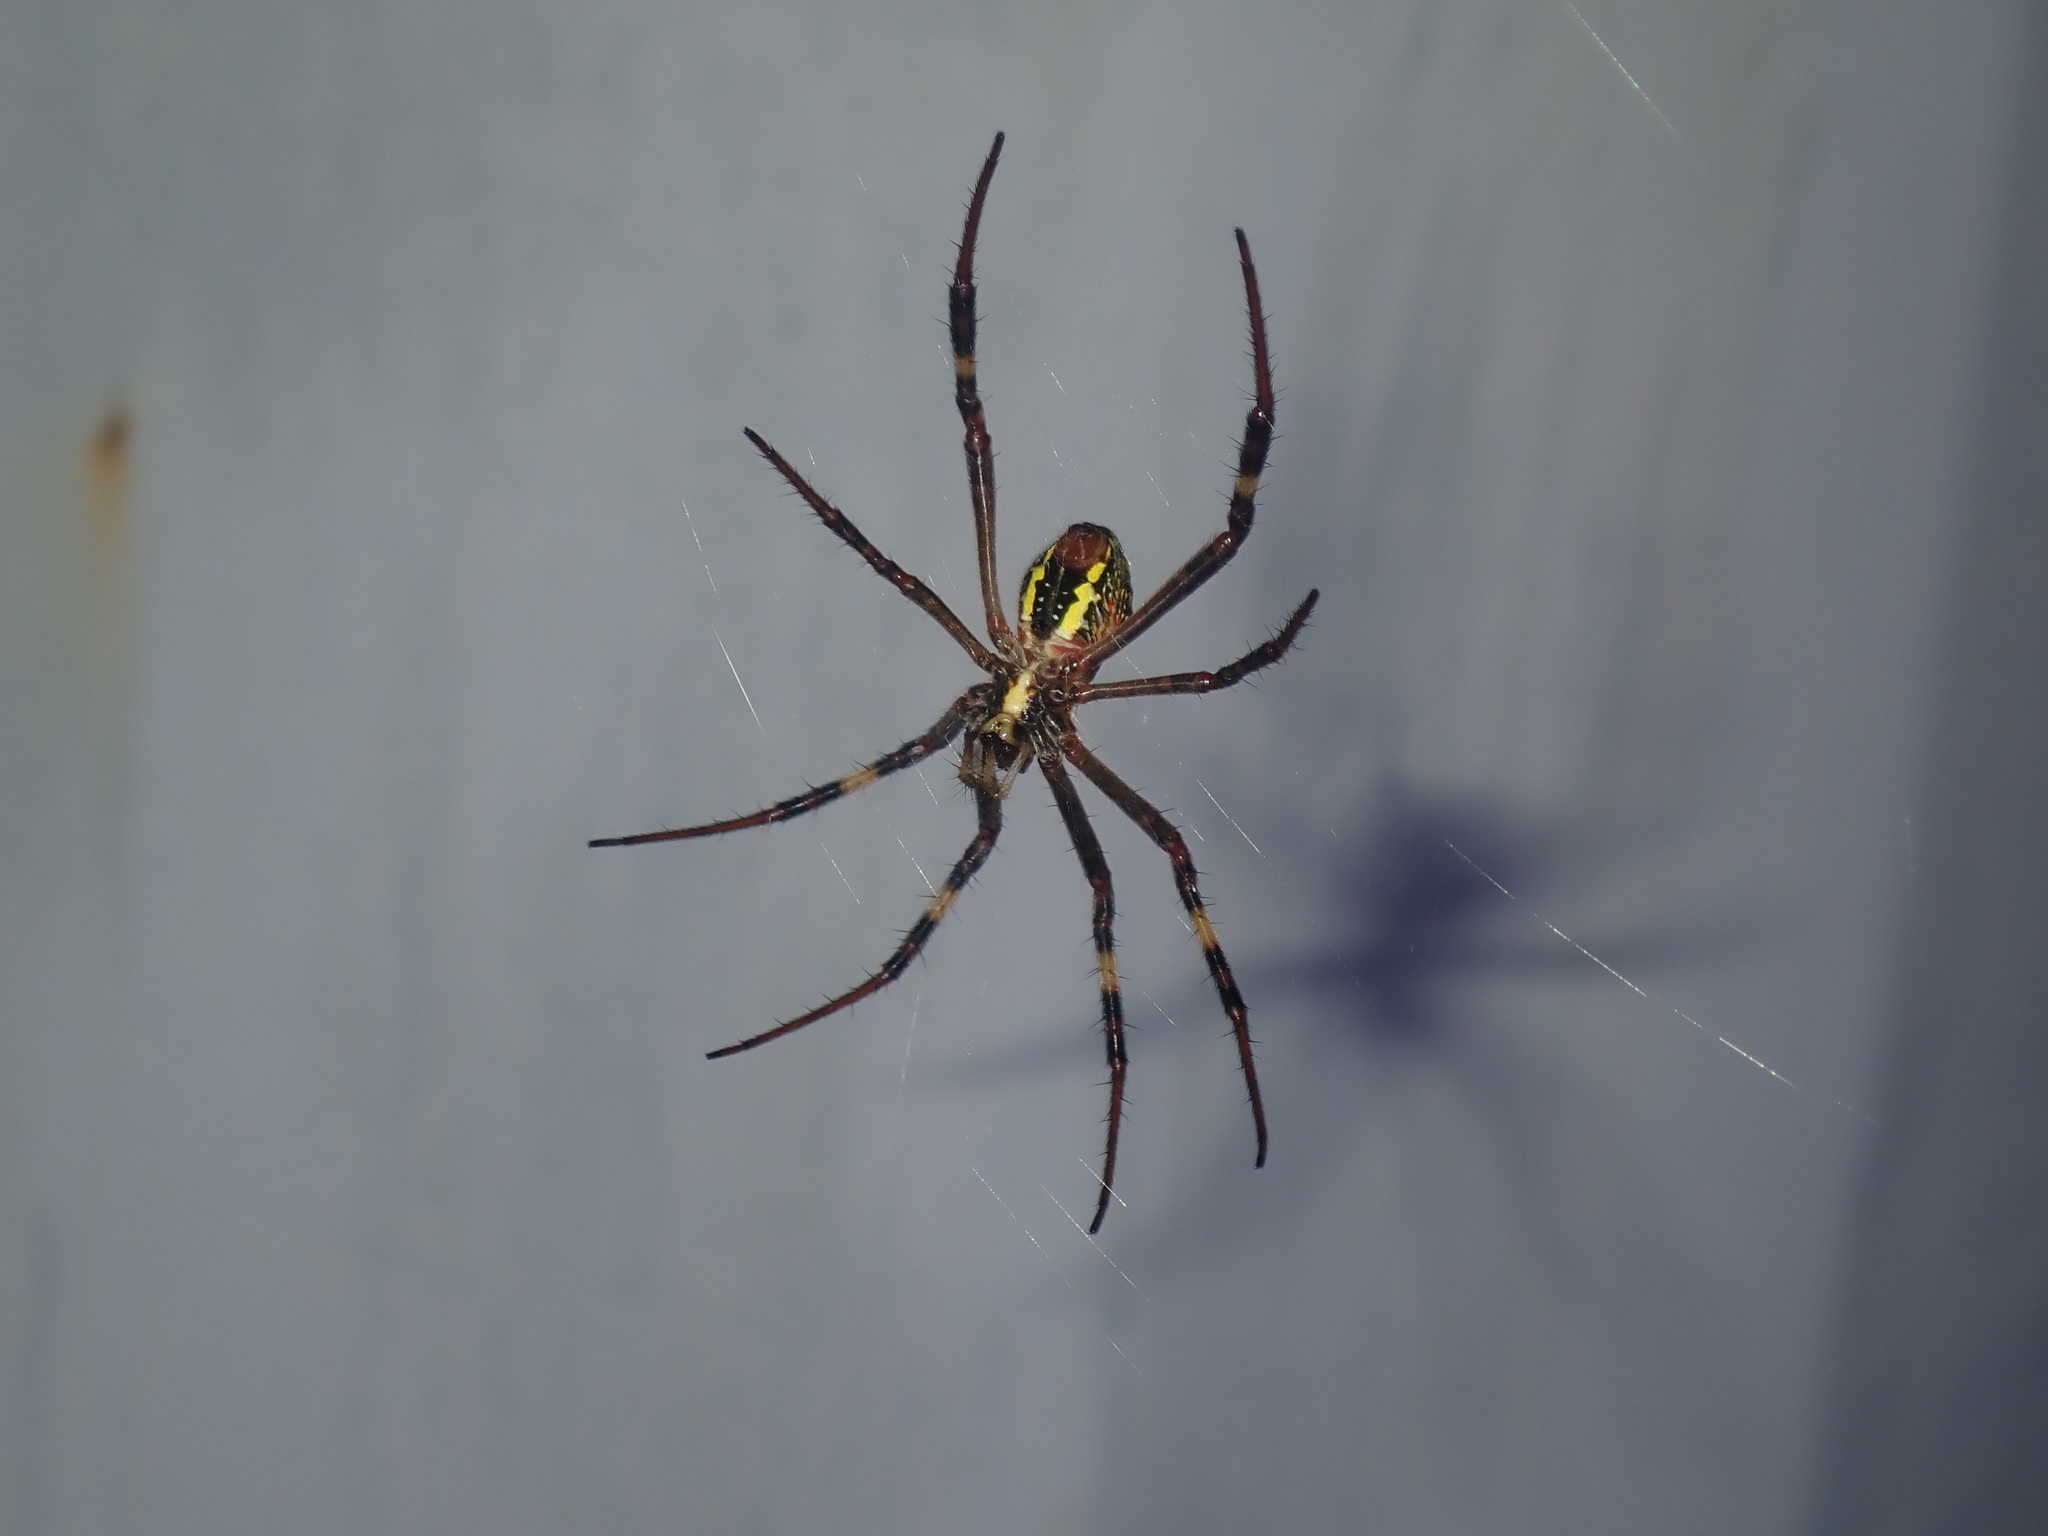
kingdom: Animalia
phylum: Arthropoda
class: Arachnida
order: Araneae
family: Araneidae
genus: Argiope
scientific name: Argiope keyserlingi
